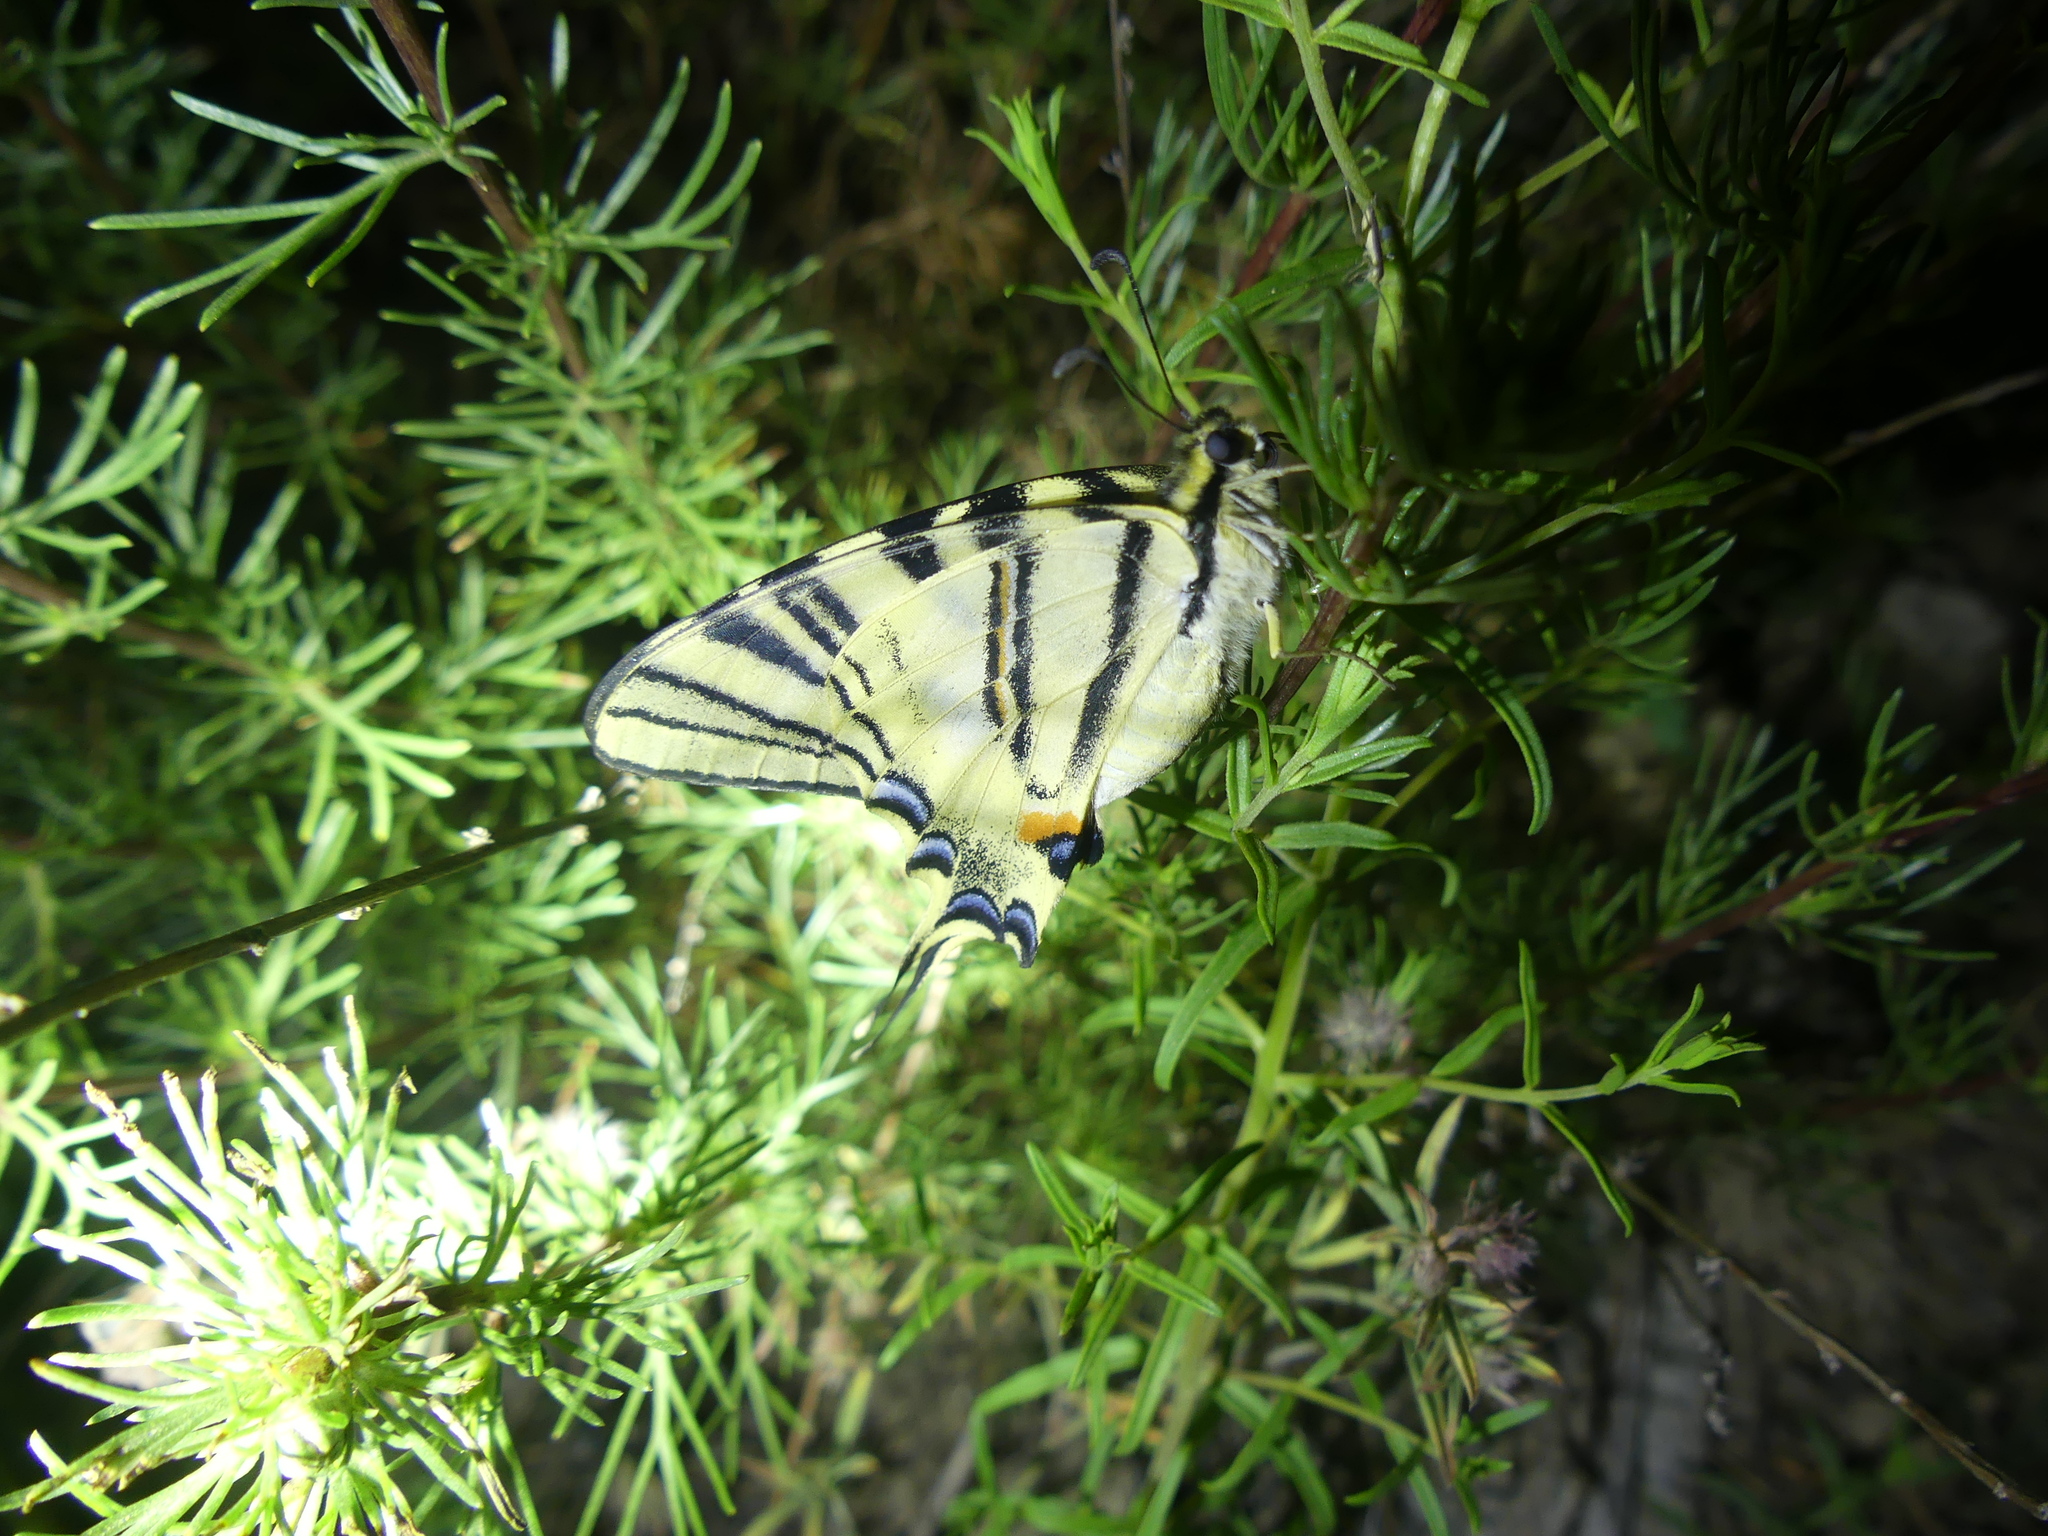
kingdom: Animalia
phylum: Arthropoda
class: Insecta
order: Lepidoptera
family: Papilionidae
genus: Iphiclides
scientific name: Iphiclides podalirius
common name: Scarce swallowtail
